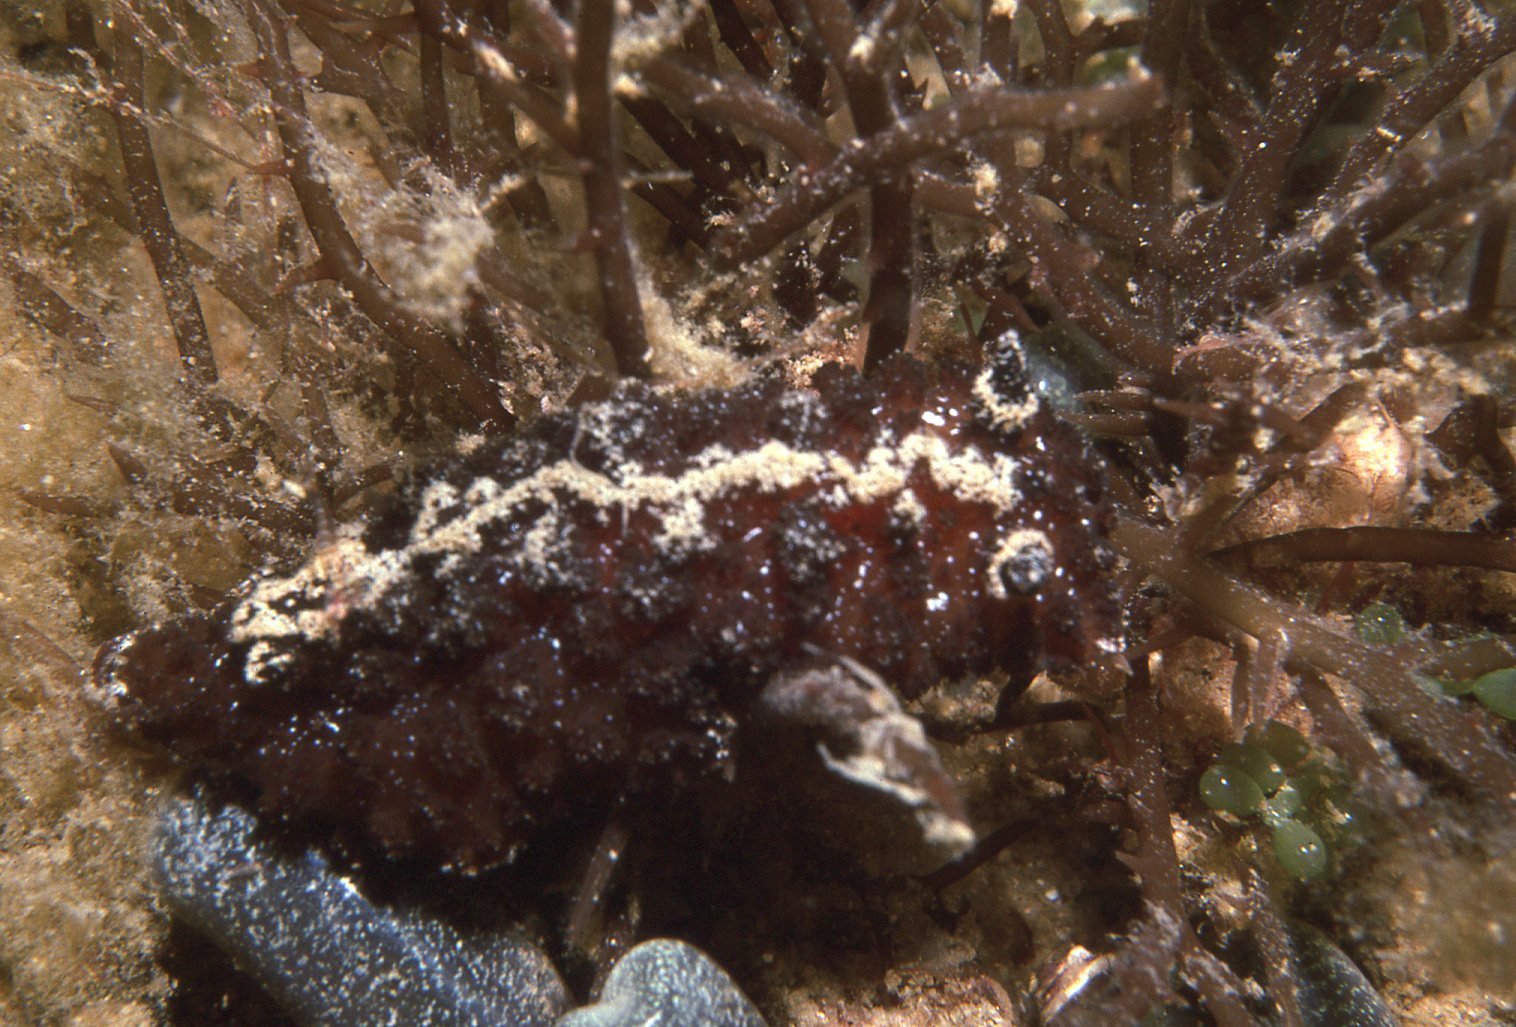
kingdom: Animalia
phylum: Mollusca
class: Gastropoda
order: Nudibranchia
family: Discodorididae
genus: Atagema
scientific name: Atagema intecta
